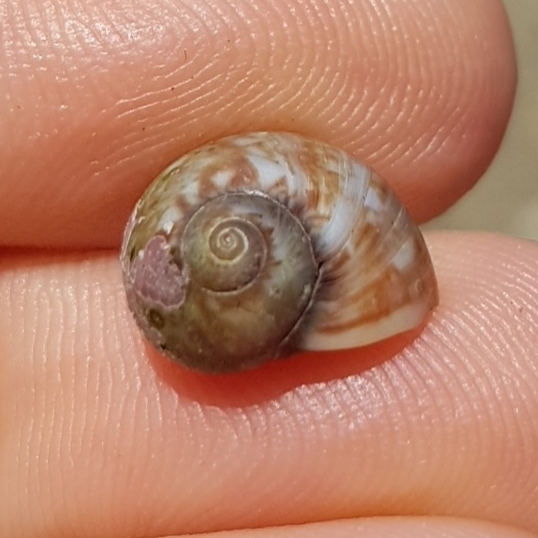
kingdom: Animalia
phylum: Mollusca
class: Gastropoda
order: Littorinimorpha
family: Naticidae
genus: Tectonatica
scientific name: Tectonatica prietoi
